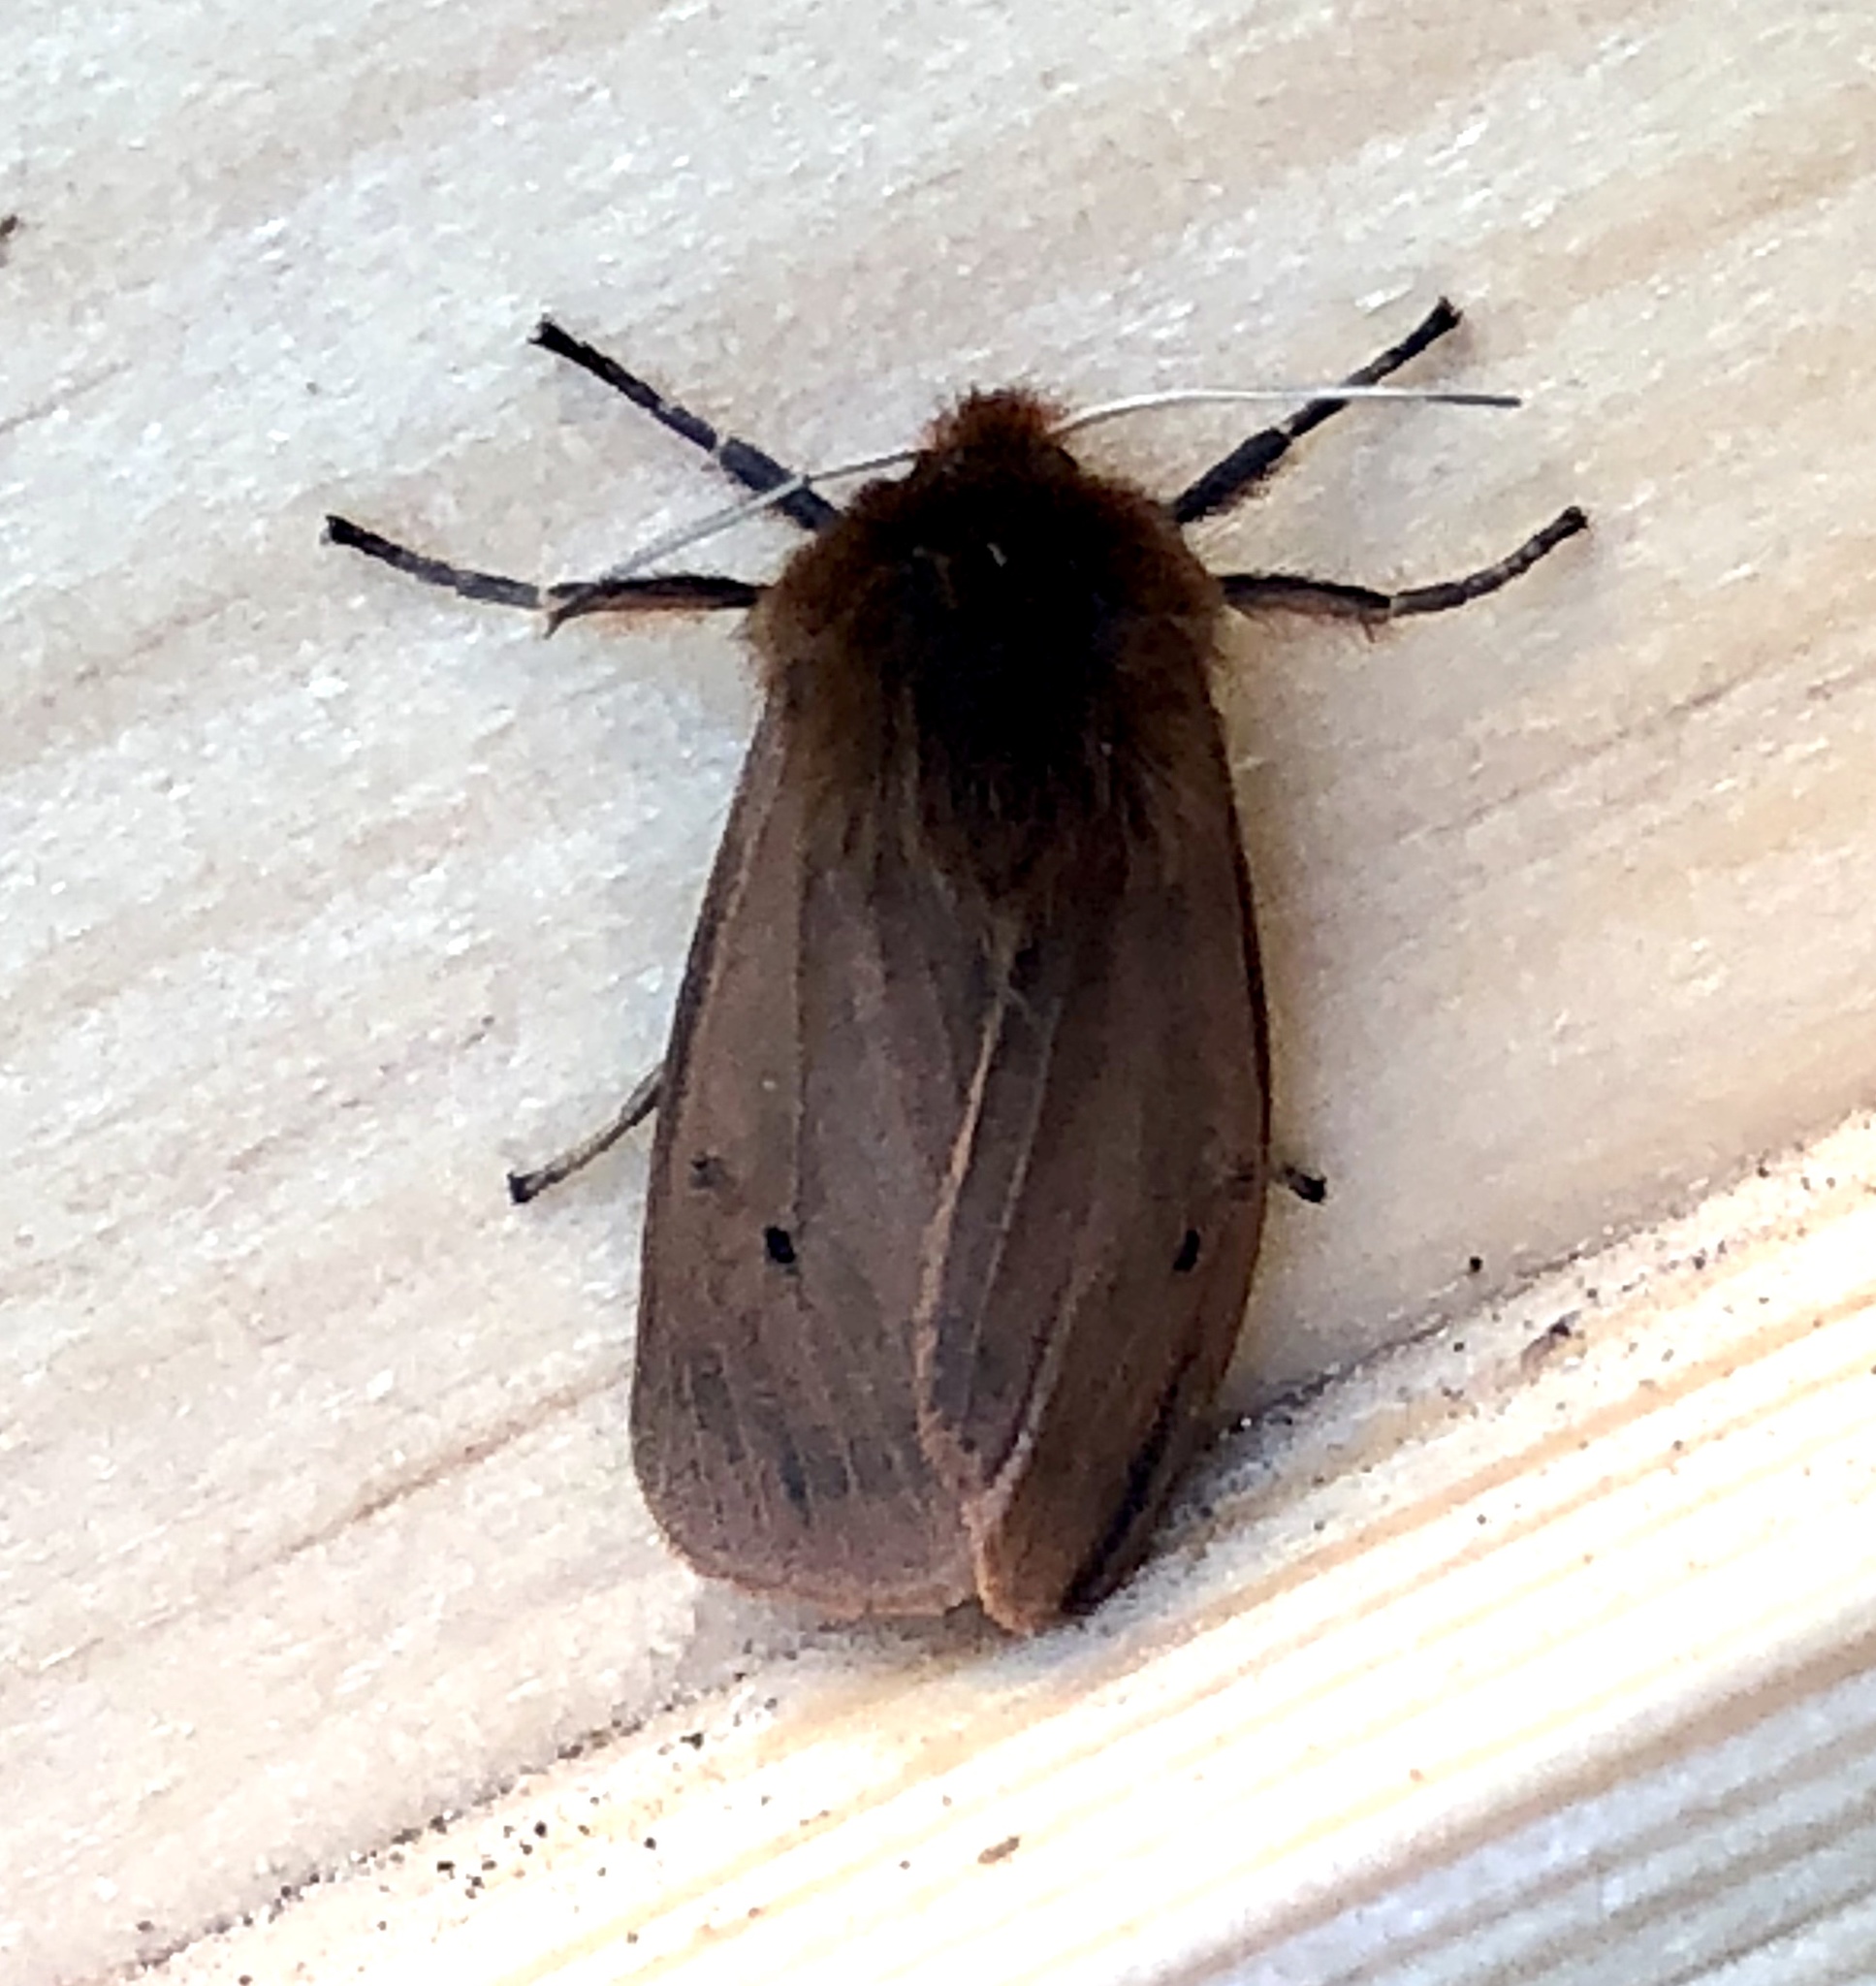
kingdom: Animalia
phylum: Arthropoda
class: Insecta
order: Lepidoptera
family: Erebidae
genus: Phragmatobia
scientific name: Phragmatobia fuliginosa
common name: Ruby tiger
